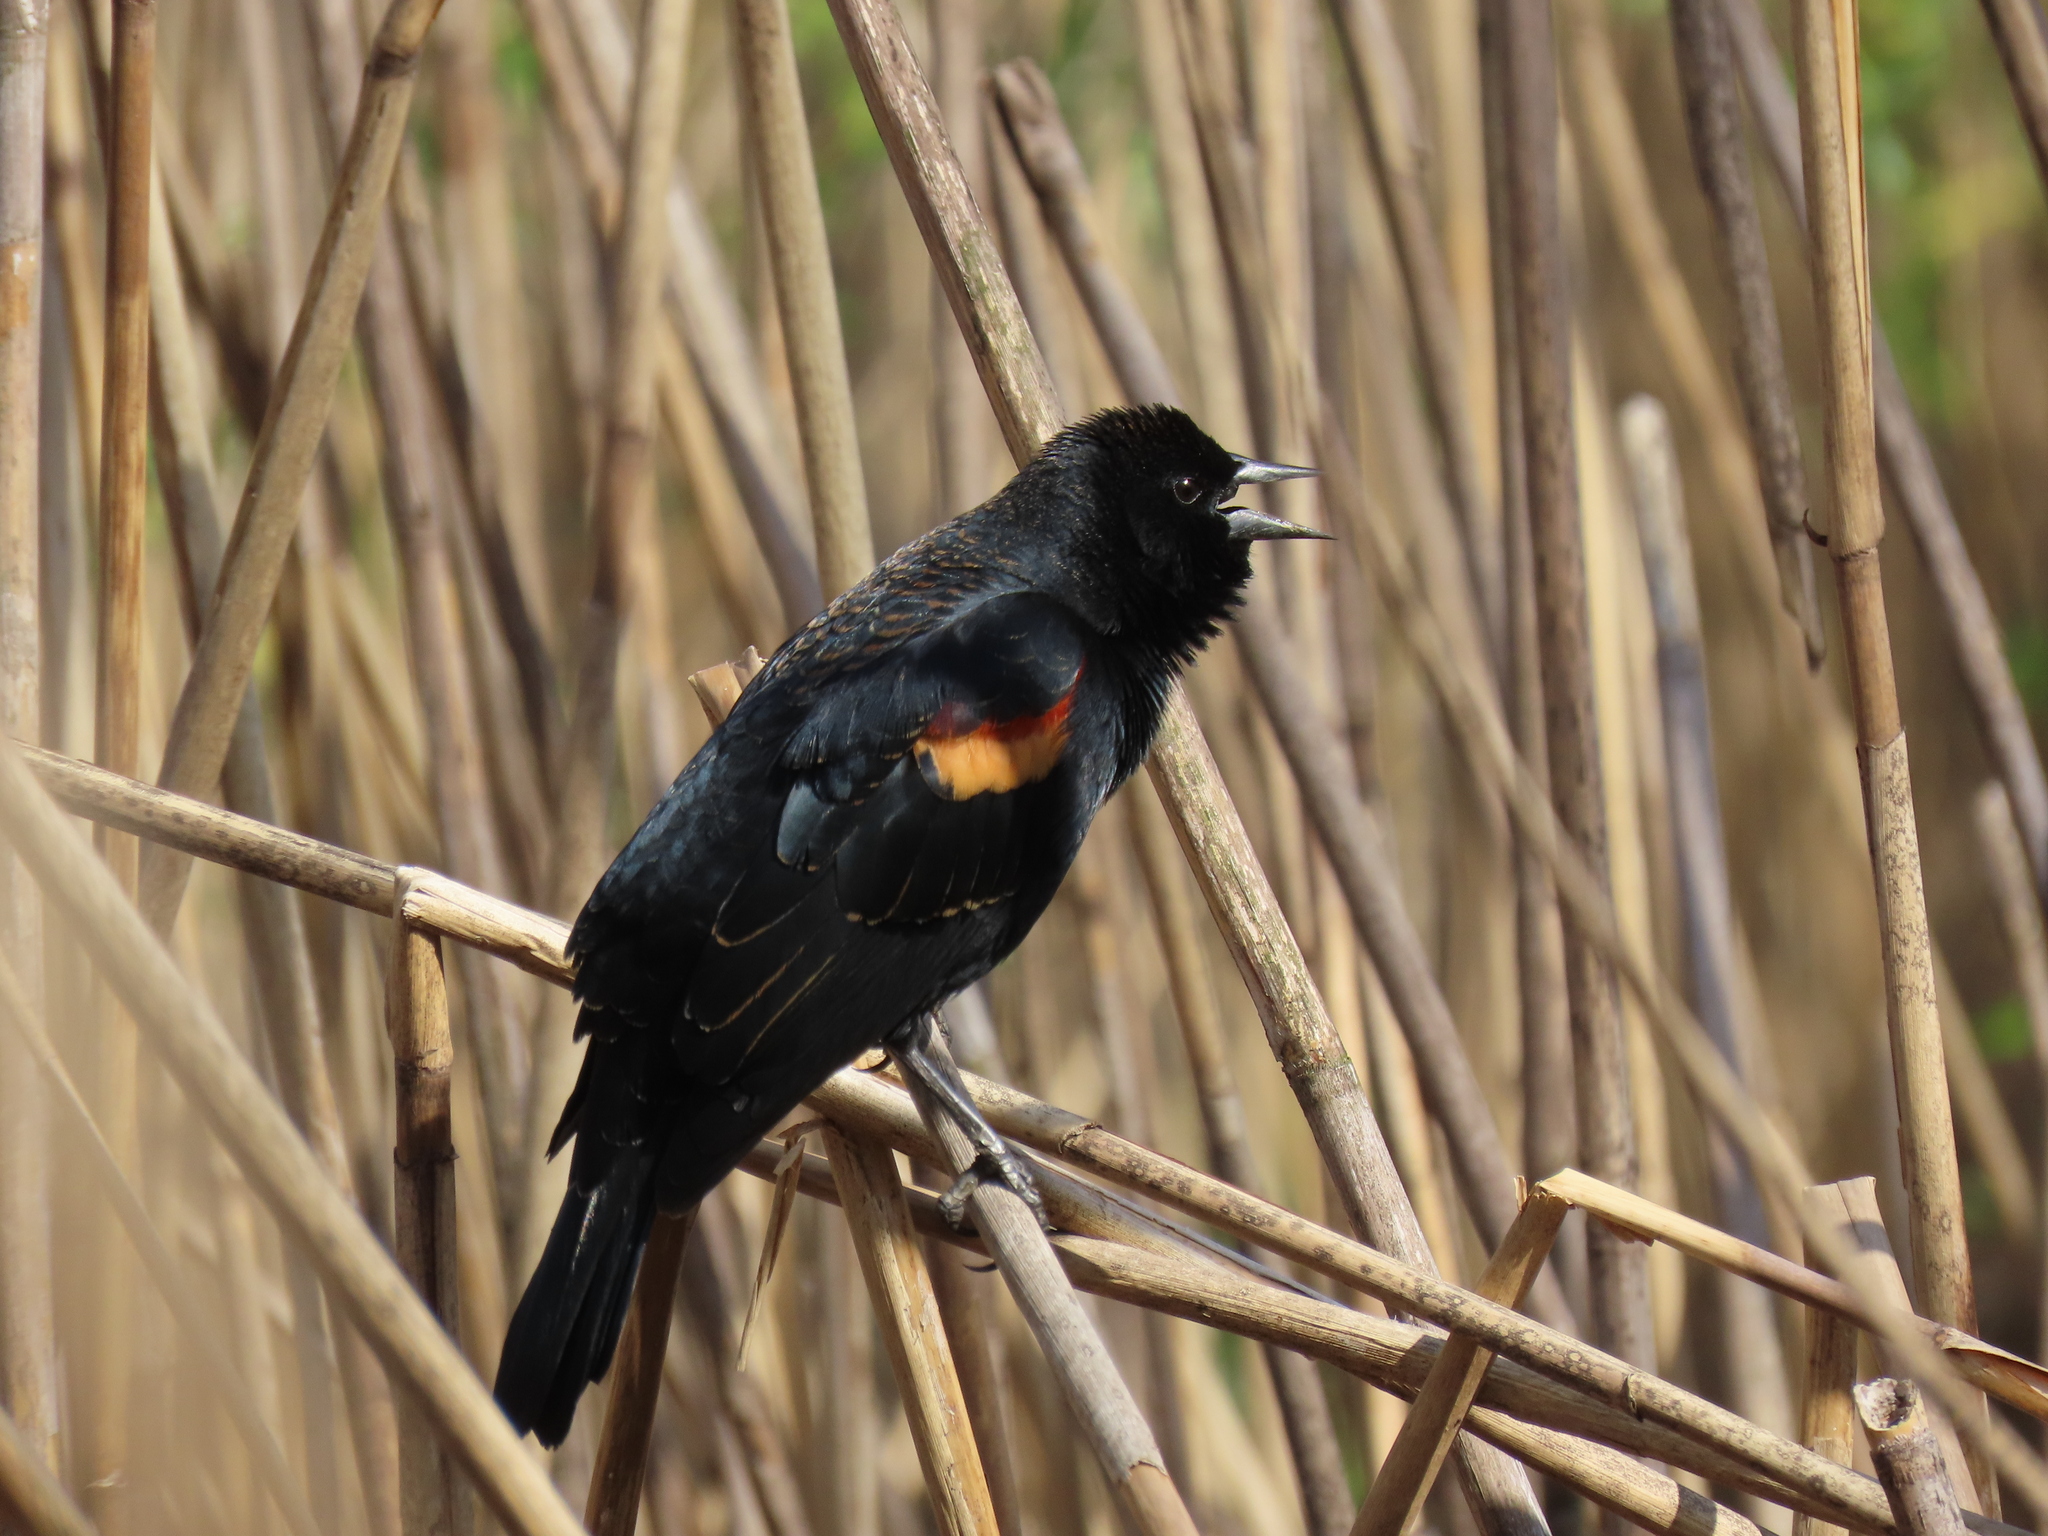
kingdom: Animalia
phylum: Chordata
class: Aves
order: Passeriformes
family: Icteridae
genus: Agelaius
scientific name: Agelaius phoeniceus
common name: Red-winged blackbird
